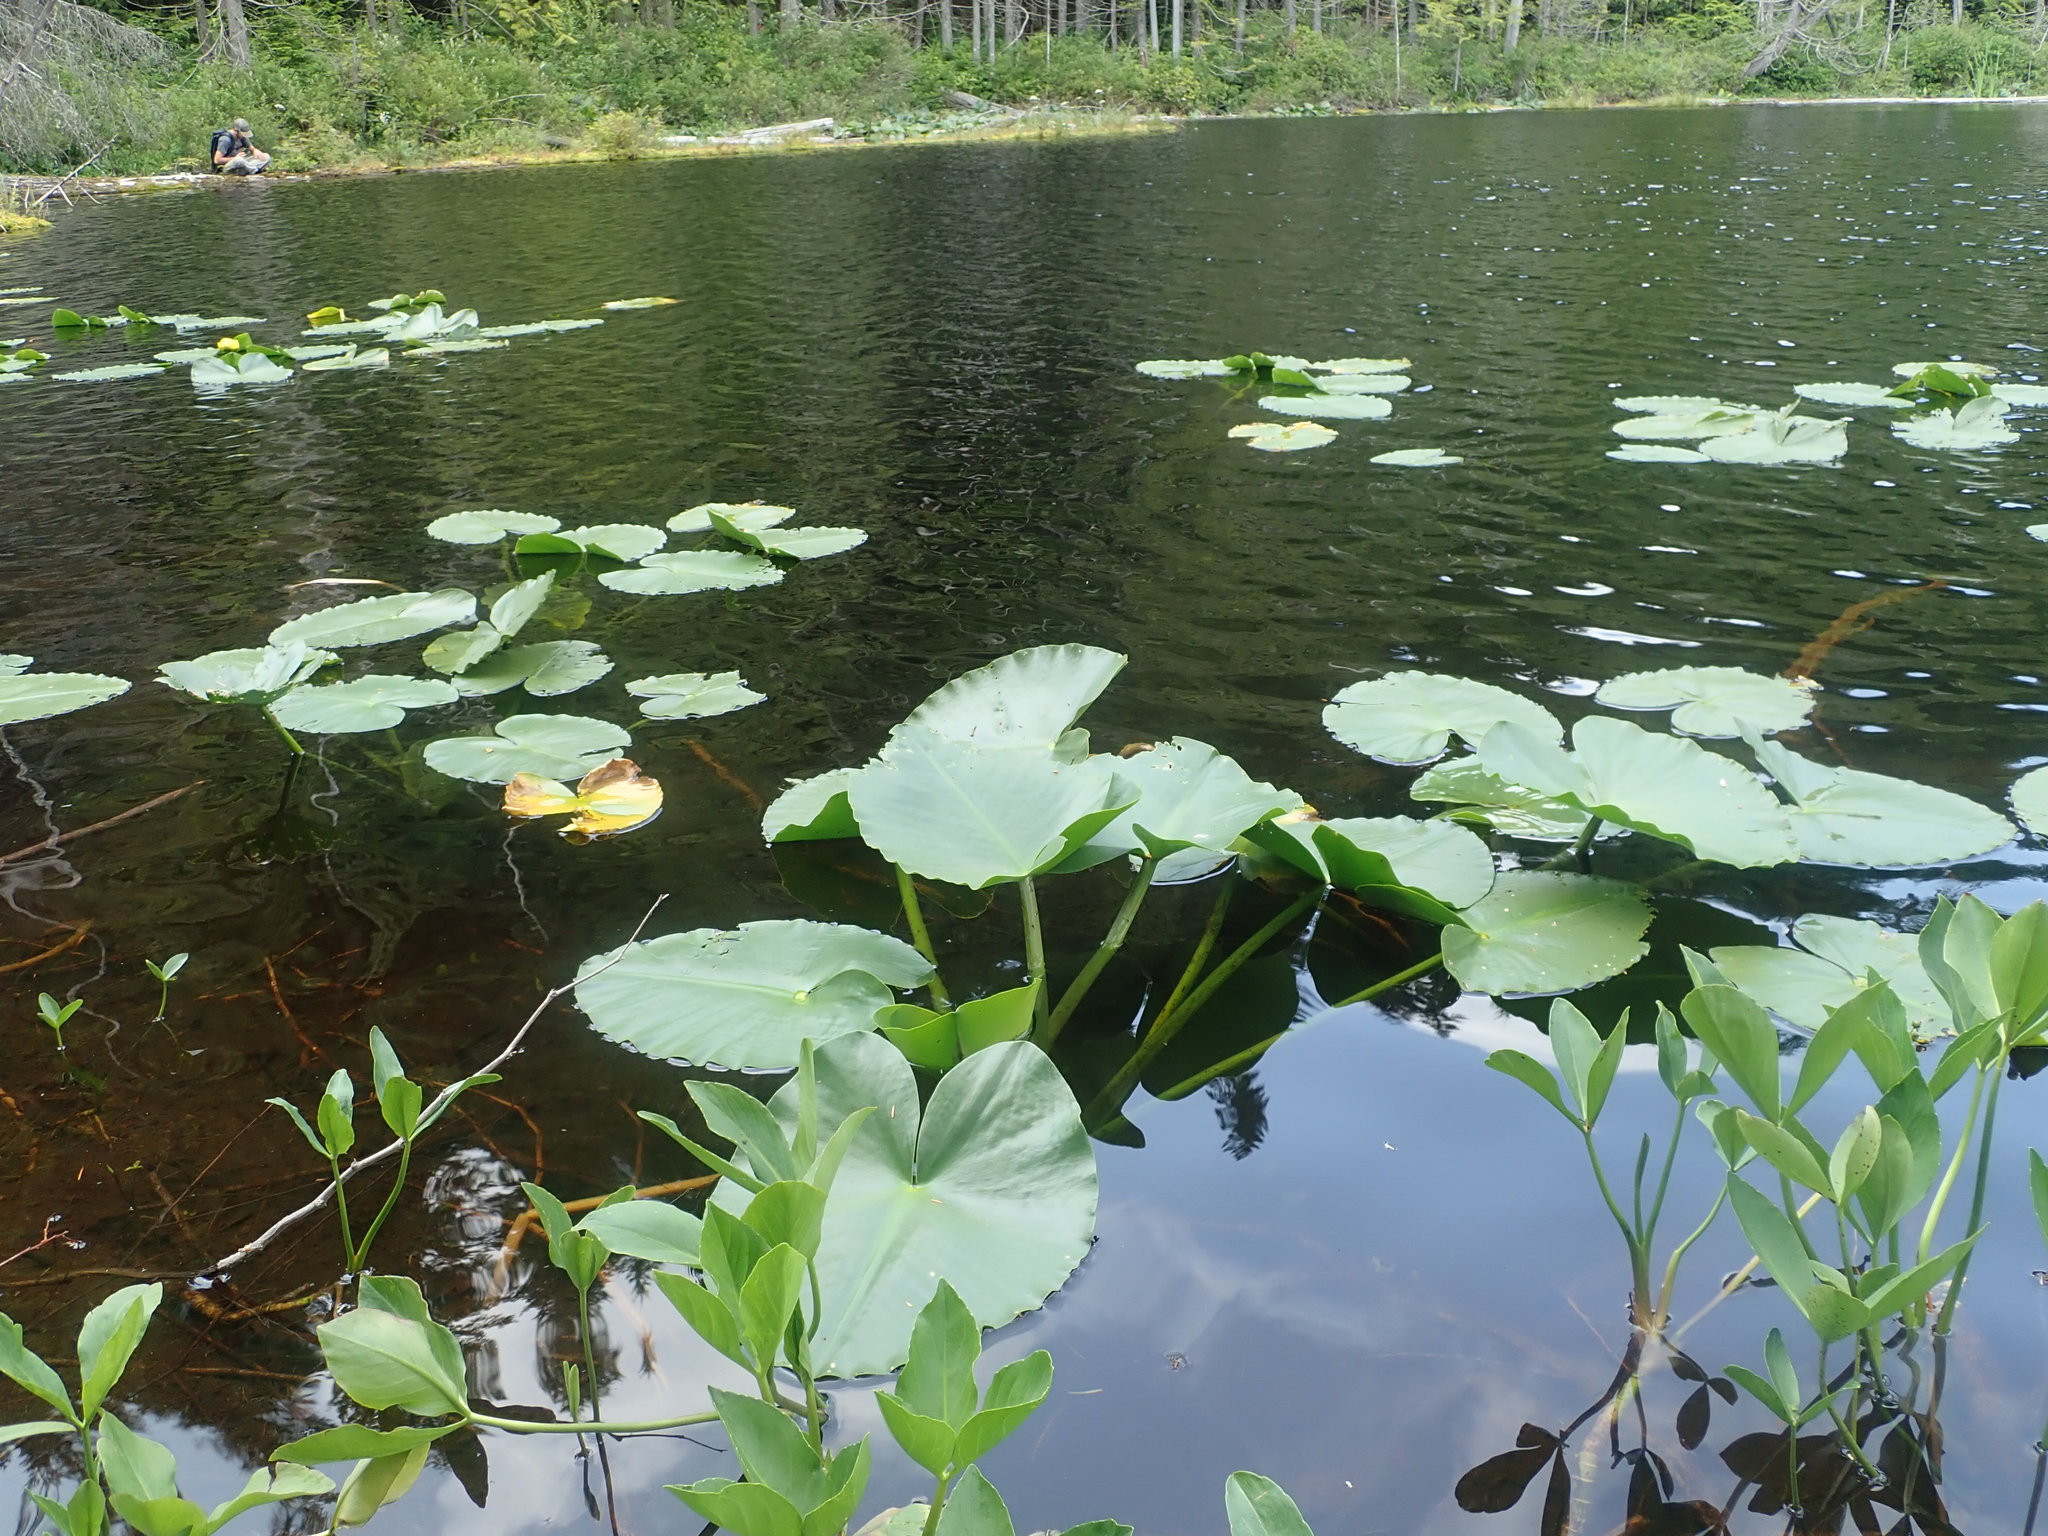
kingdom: Plantae
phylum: Tracheophyta
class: Magnoliopsida
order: Nymphaeales
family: Nymphaeaceae
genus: Nuphar
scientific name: Nuphar polysepala
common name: Rocky mountain cow-lily
